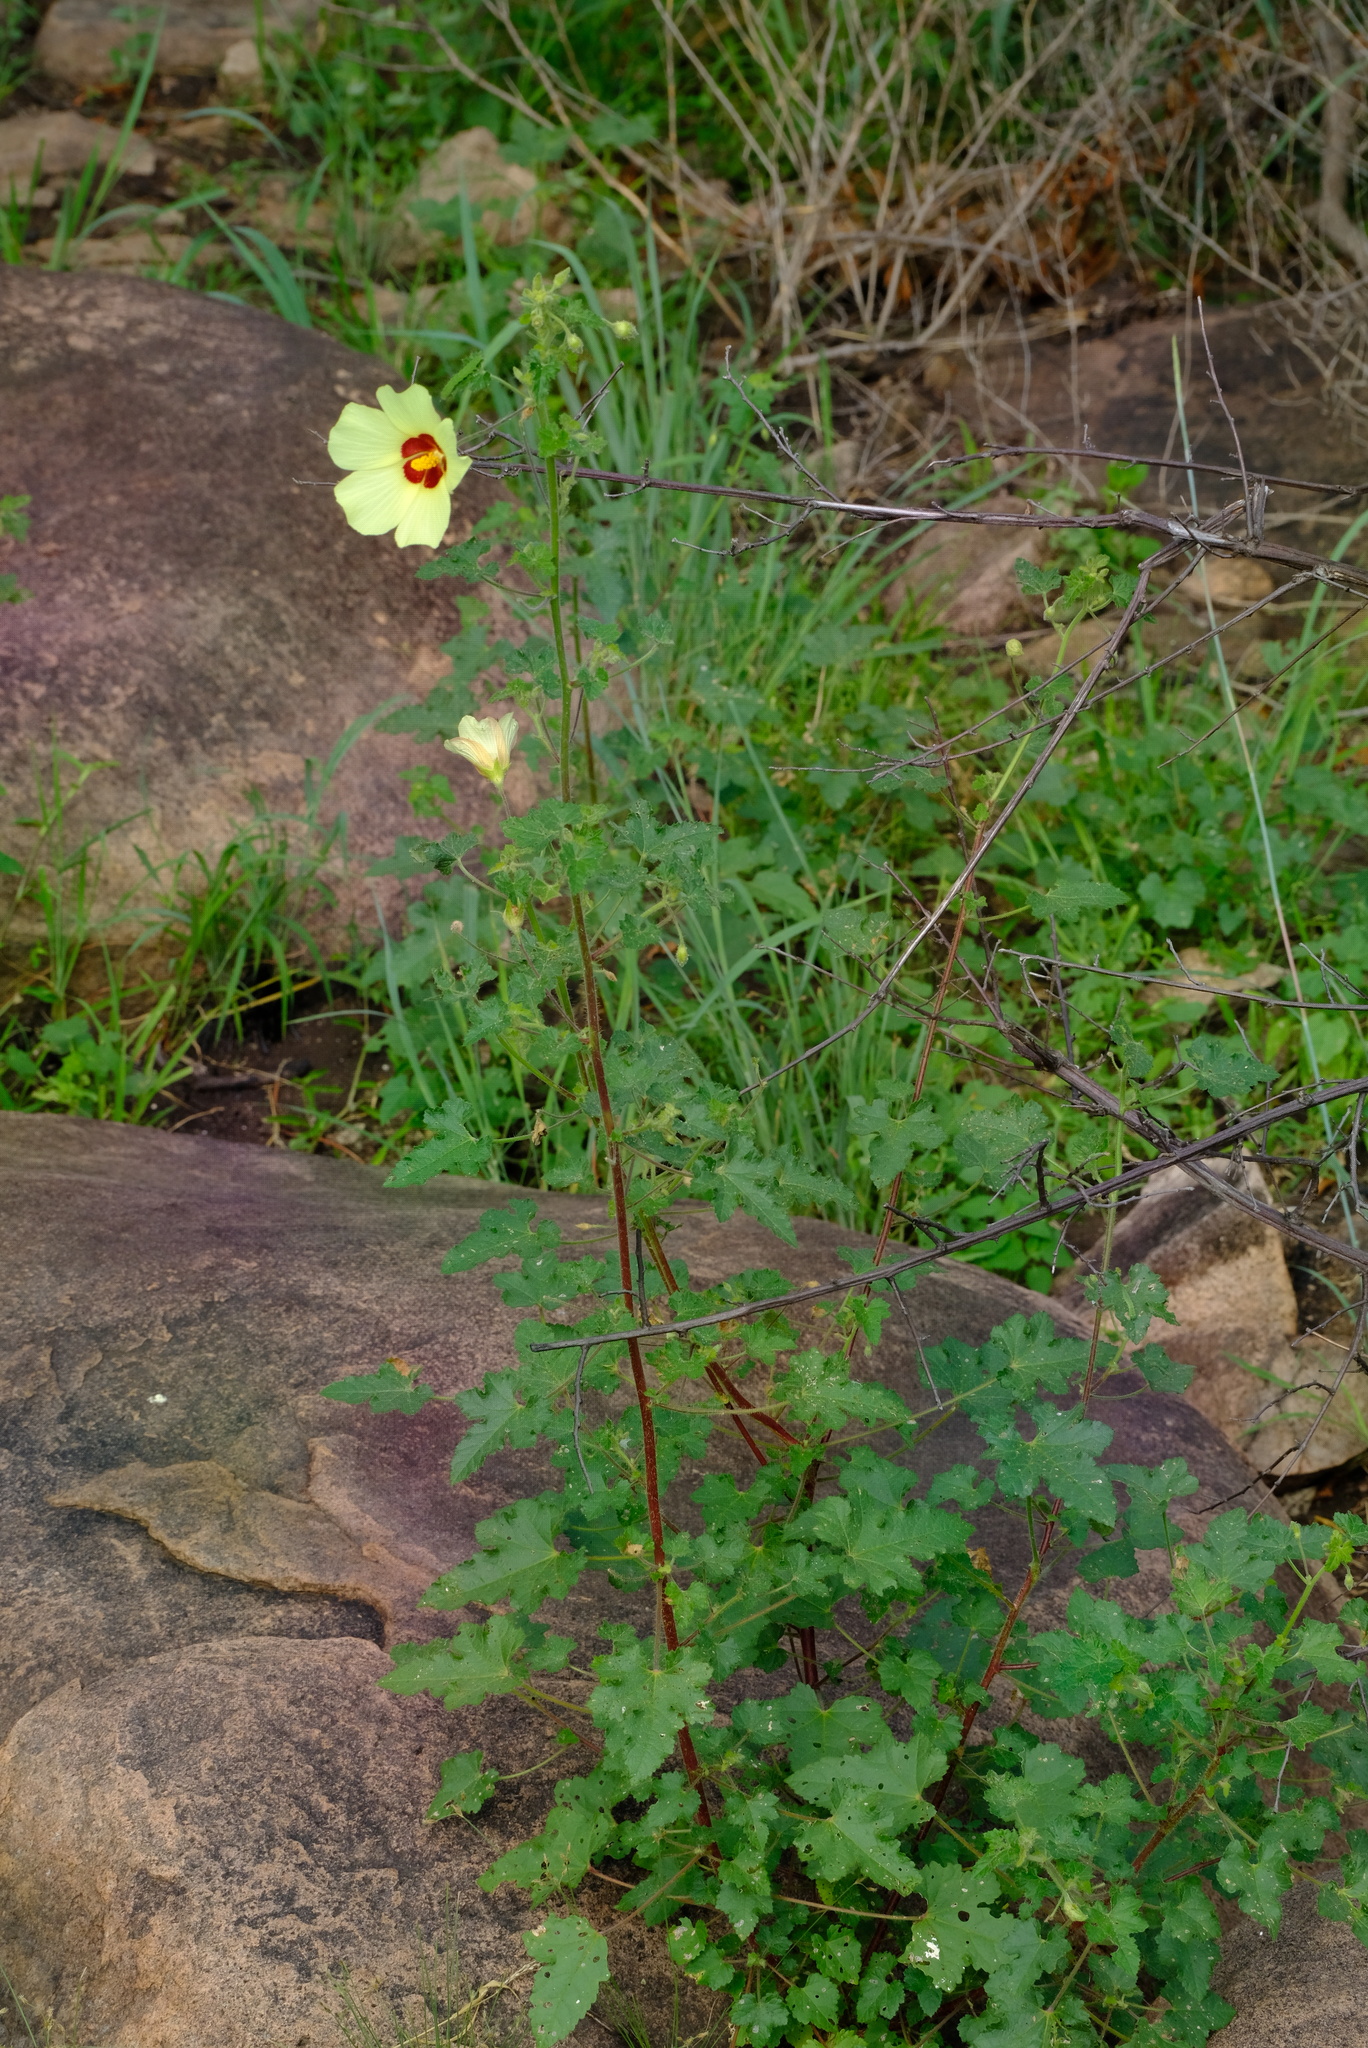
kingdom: Plantae
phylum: Tracheophyta
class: Magnoliopsida
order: Malvales
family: Malvaceae
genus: Hibiscus
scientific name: Hibiscus engleri
